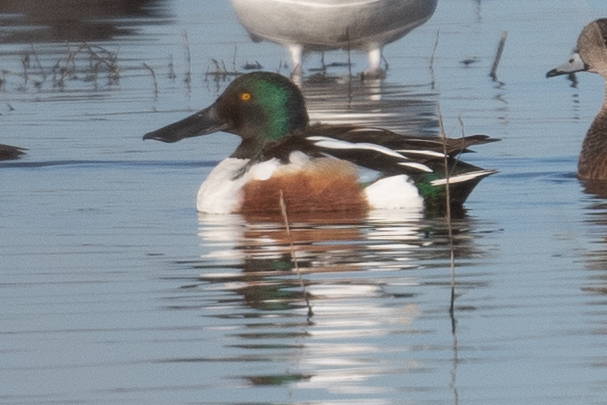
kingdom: Animalia
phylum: Chordata
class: Aves
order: Anseriformes
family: Anatidae
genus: Spatula
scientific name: Spatula clypeata
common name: Northern shoveler
